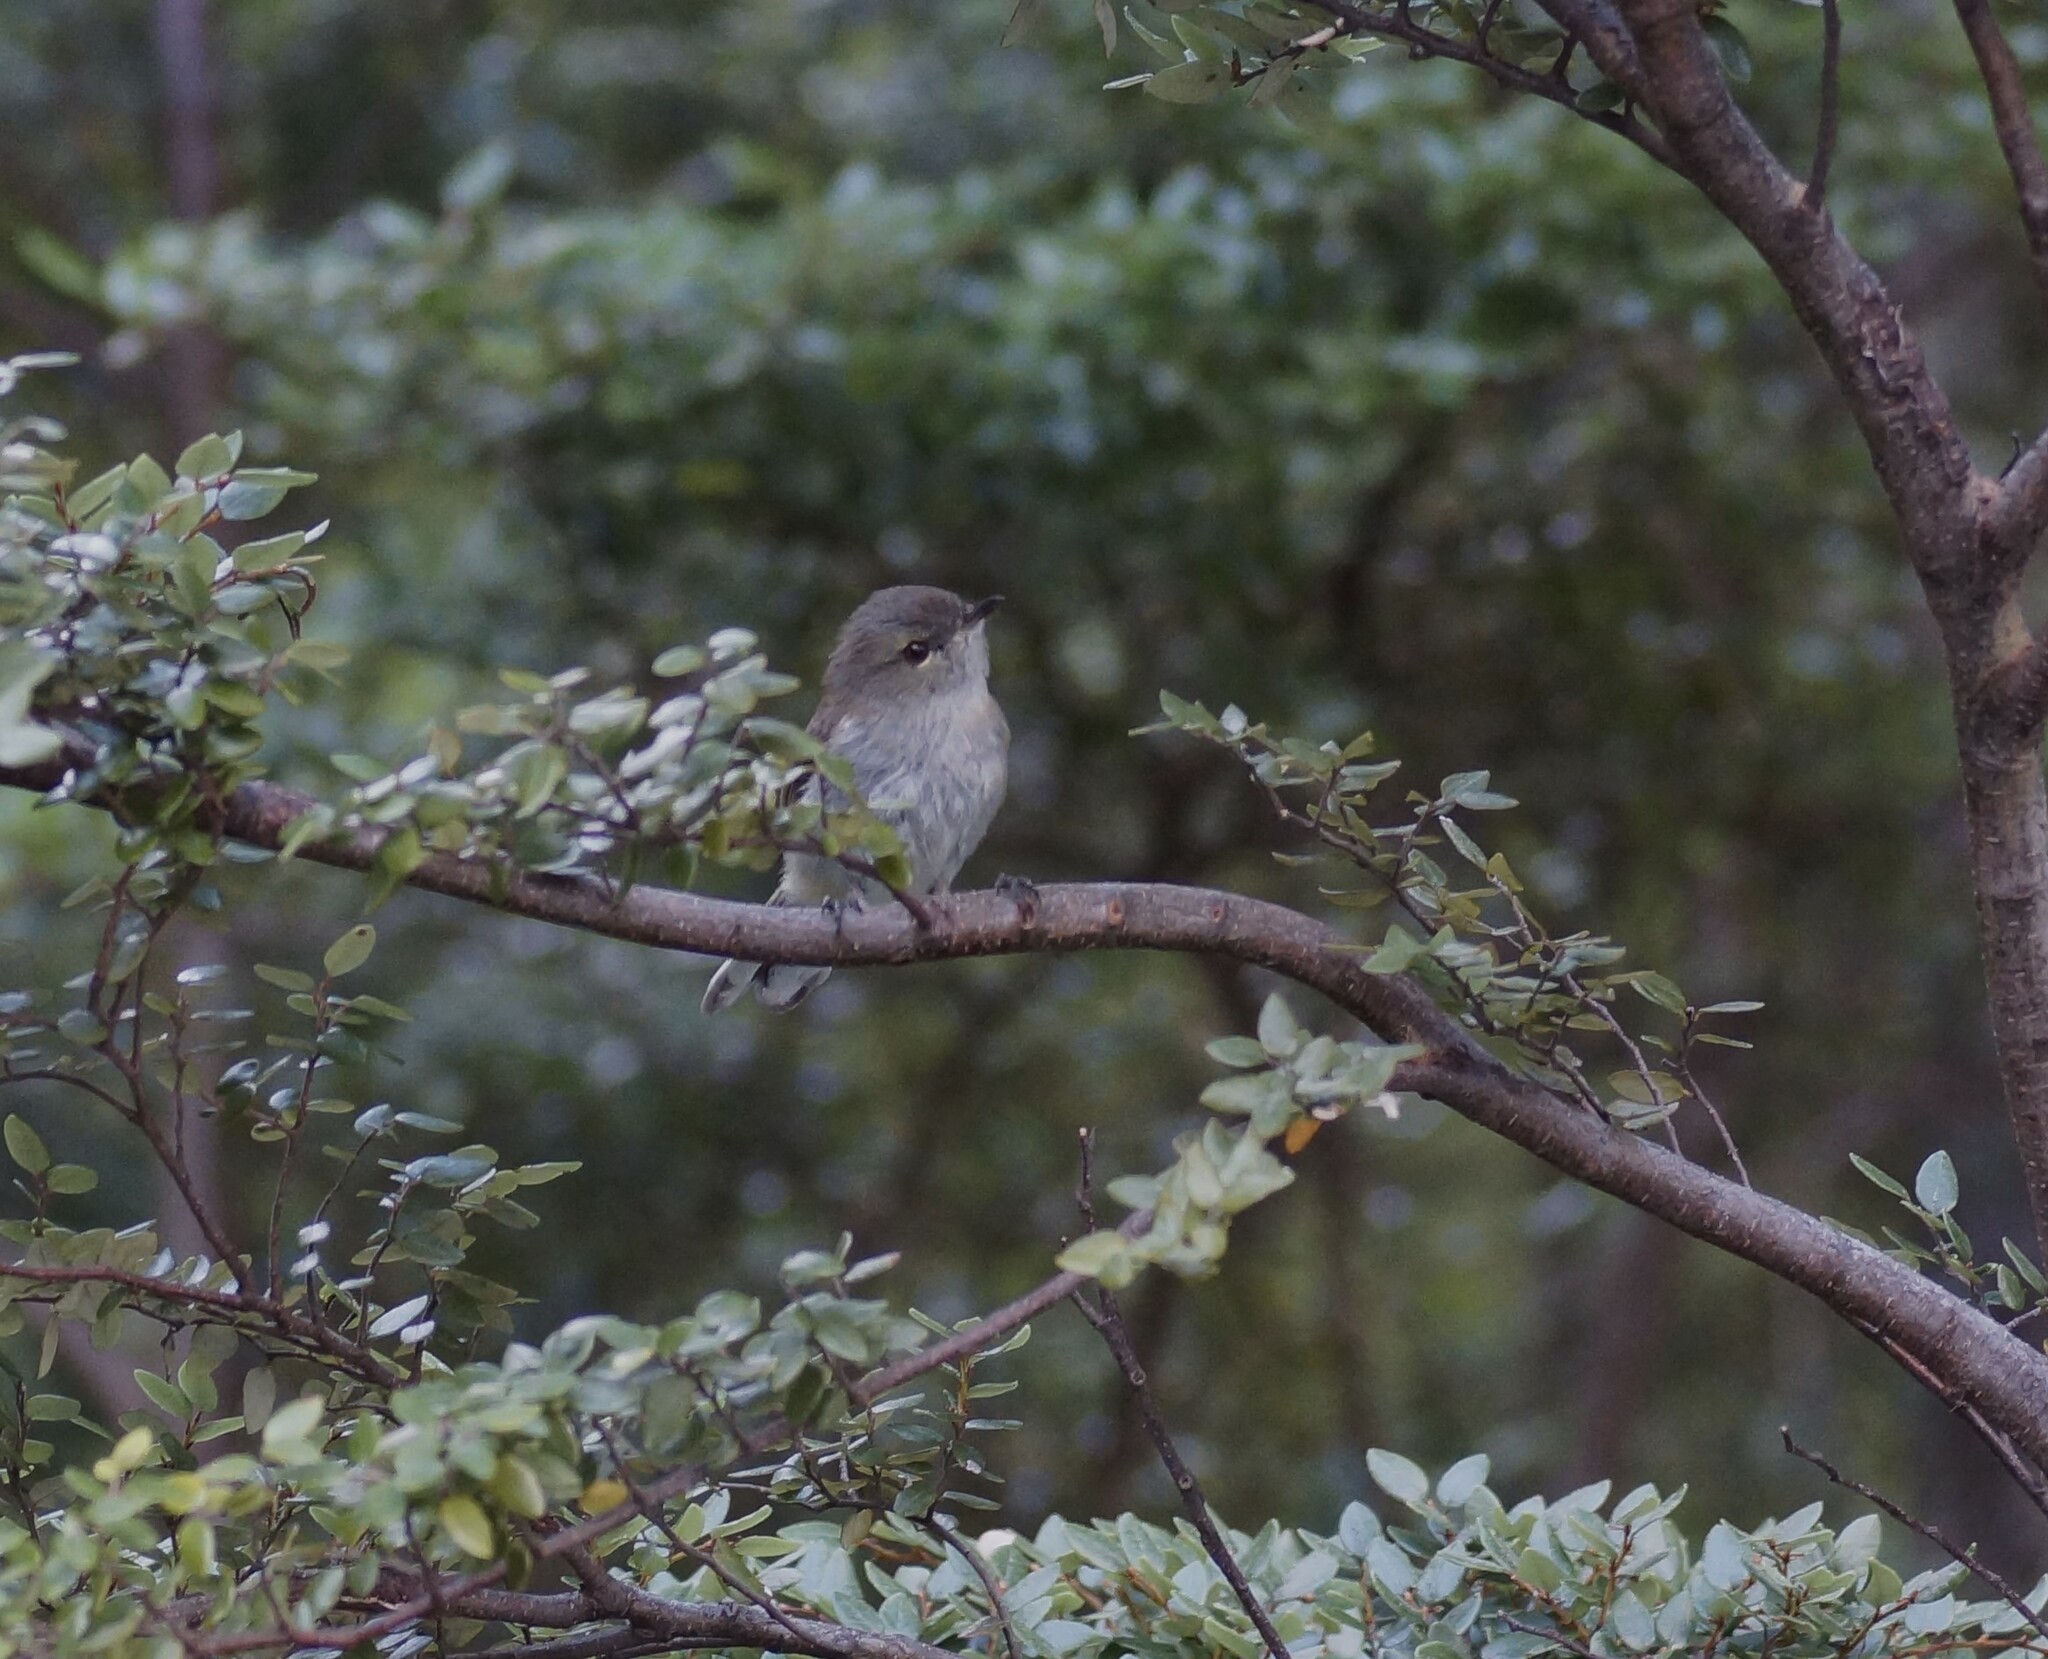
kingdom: Animalia
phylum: Chordata
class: Aves
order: Passeriformes
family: Acanthizidae
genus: Gerygone
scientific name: Gerygone igata
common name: Grey gerygone
